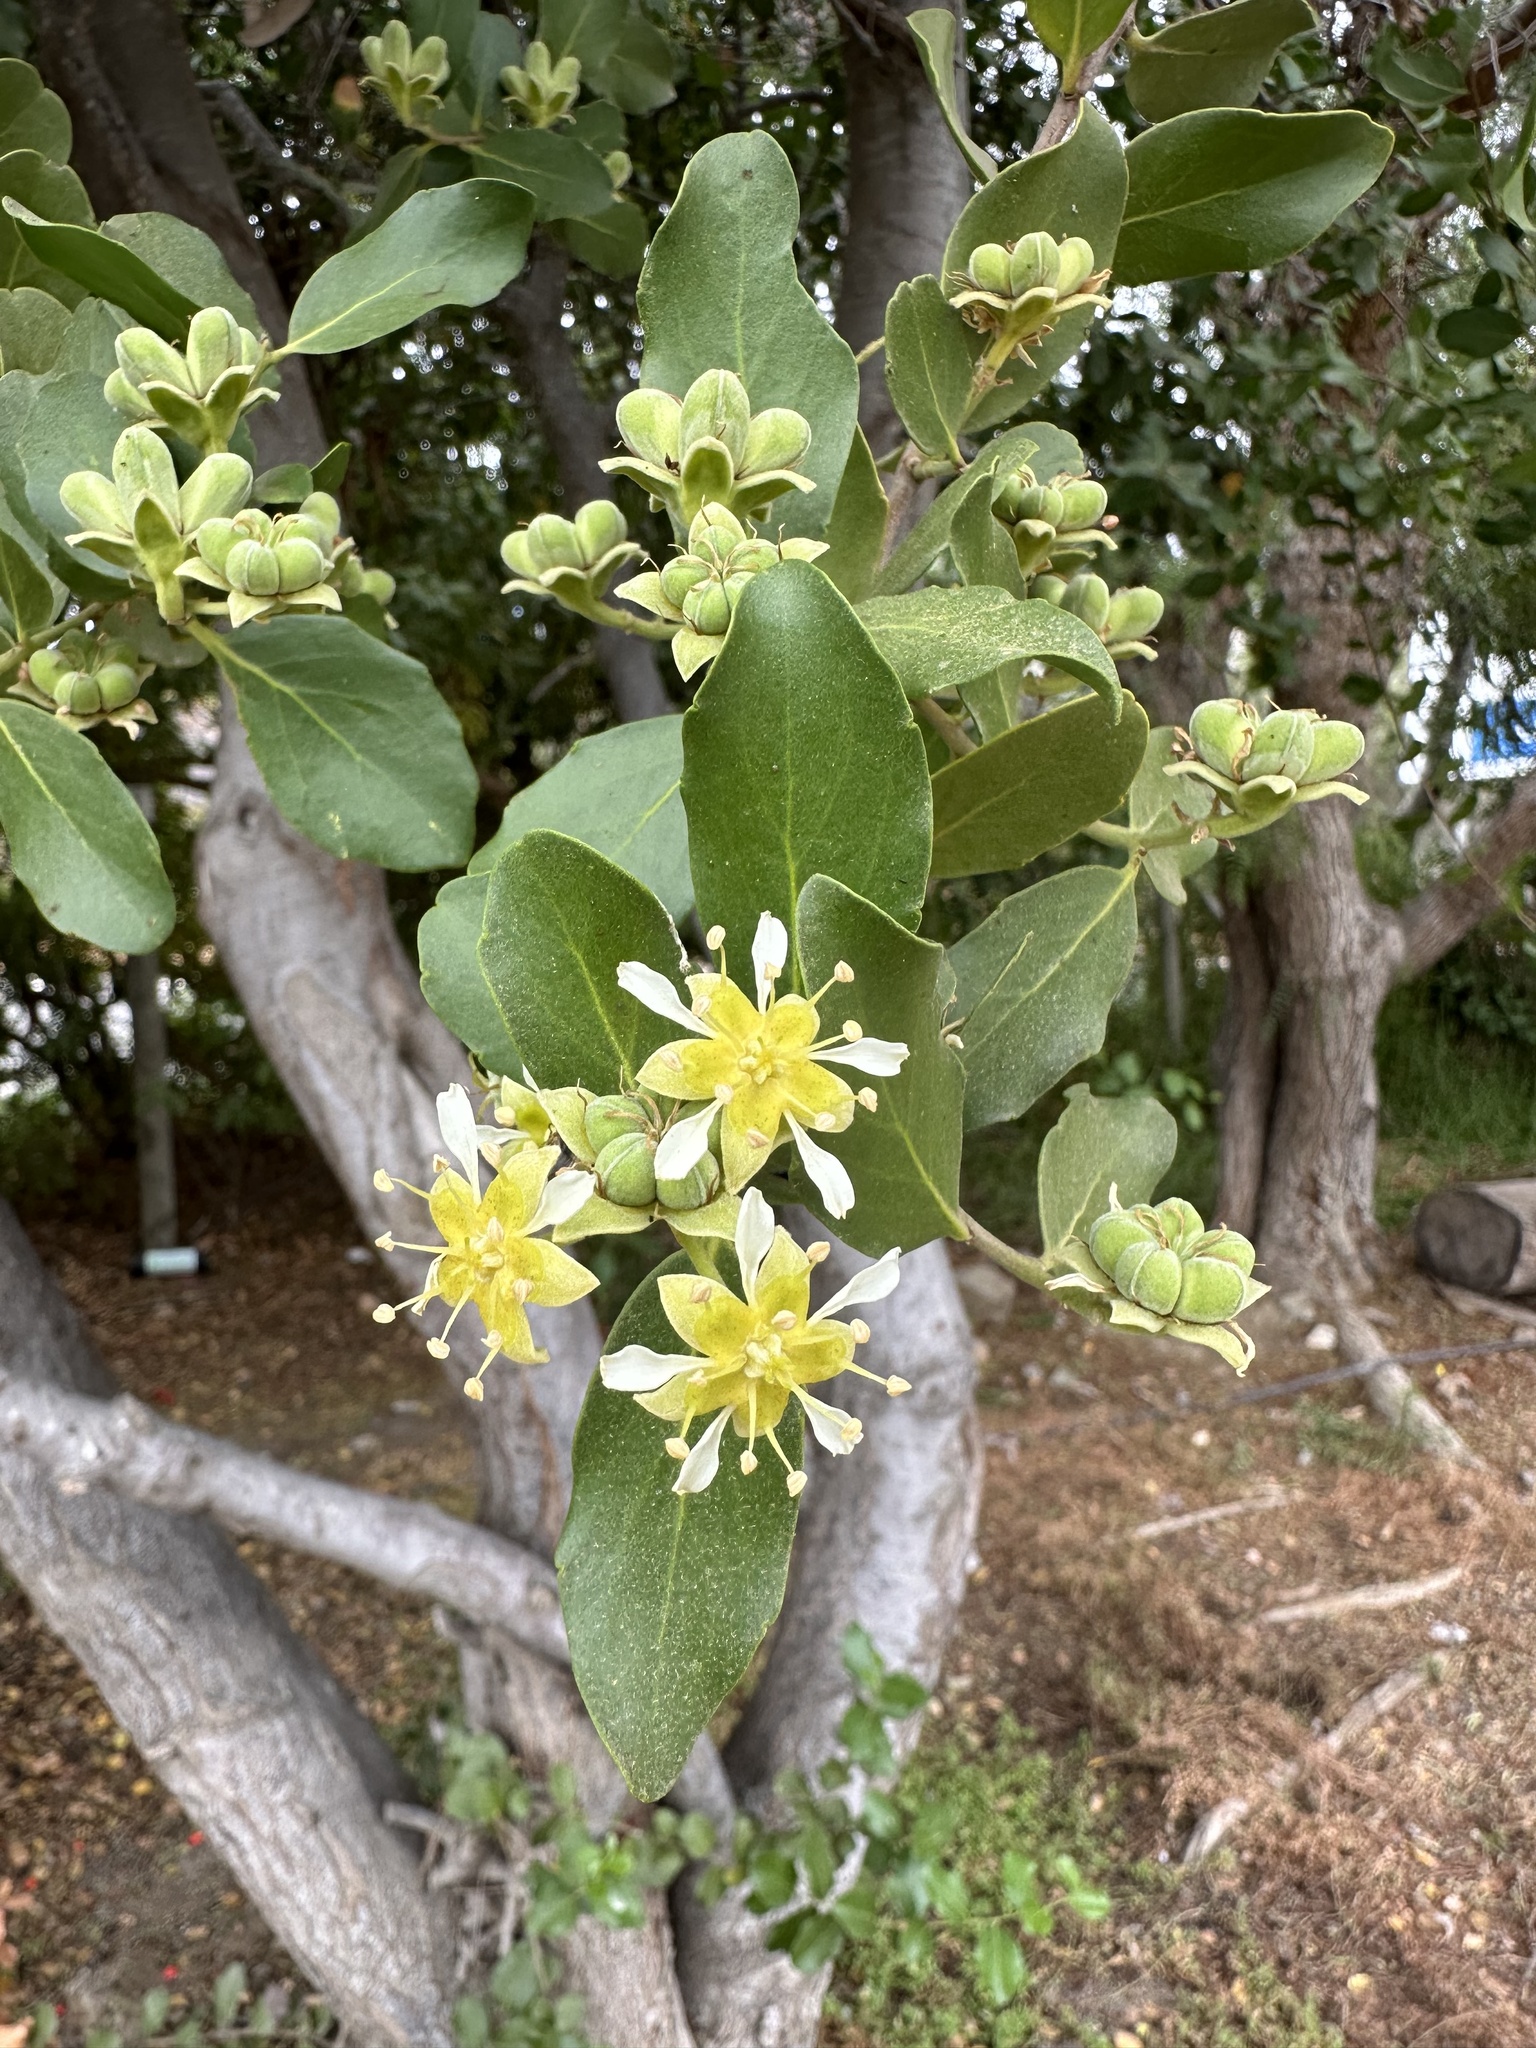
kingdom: Plantae
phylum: Tracheophyta
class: Magnoliopsida
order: Fabales
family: Quillajaceae
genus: Quillaja
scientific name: Quillaja saponaria
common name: Murillo's-bark
